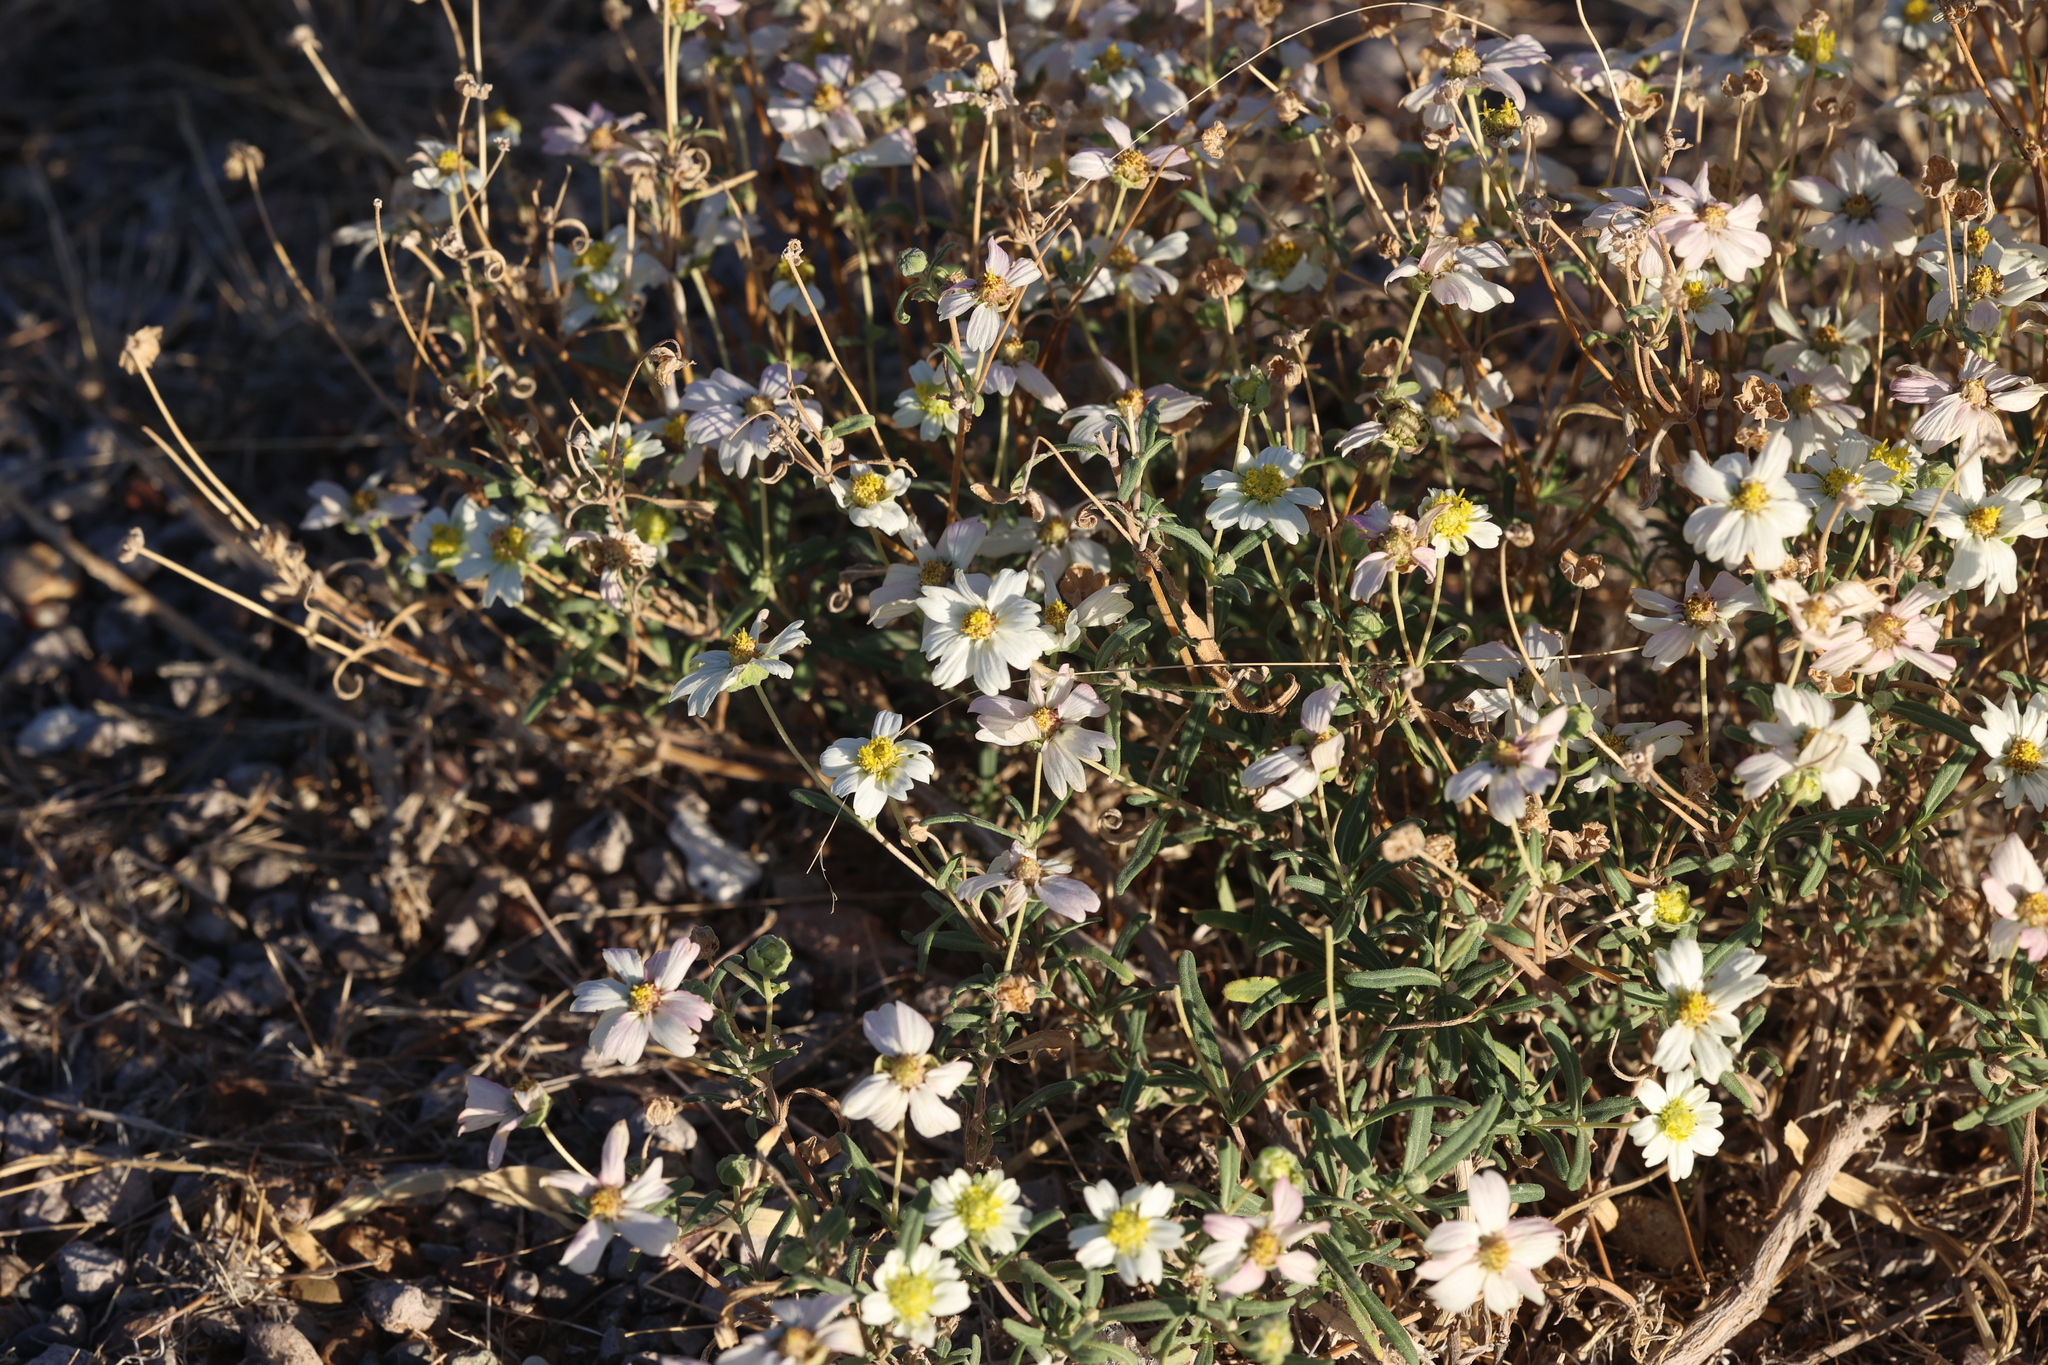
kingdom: Plantae
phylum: Tracheophyta
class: Magnoliopsida
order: Asterales
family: Asteraceae
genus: Melampodium
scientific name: Melampodium leucanthum
